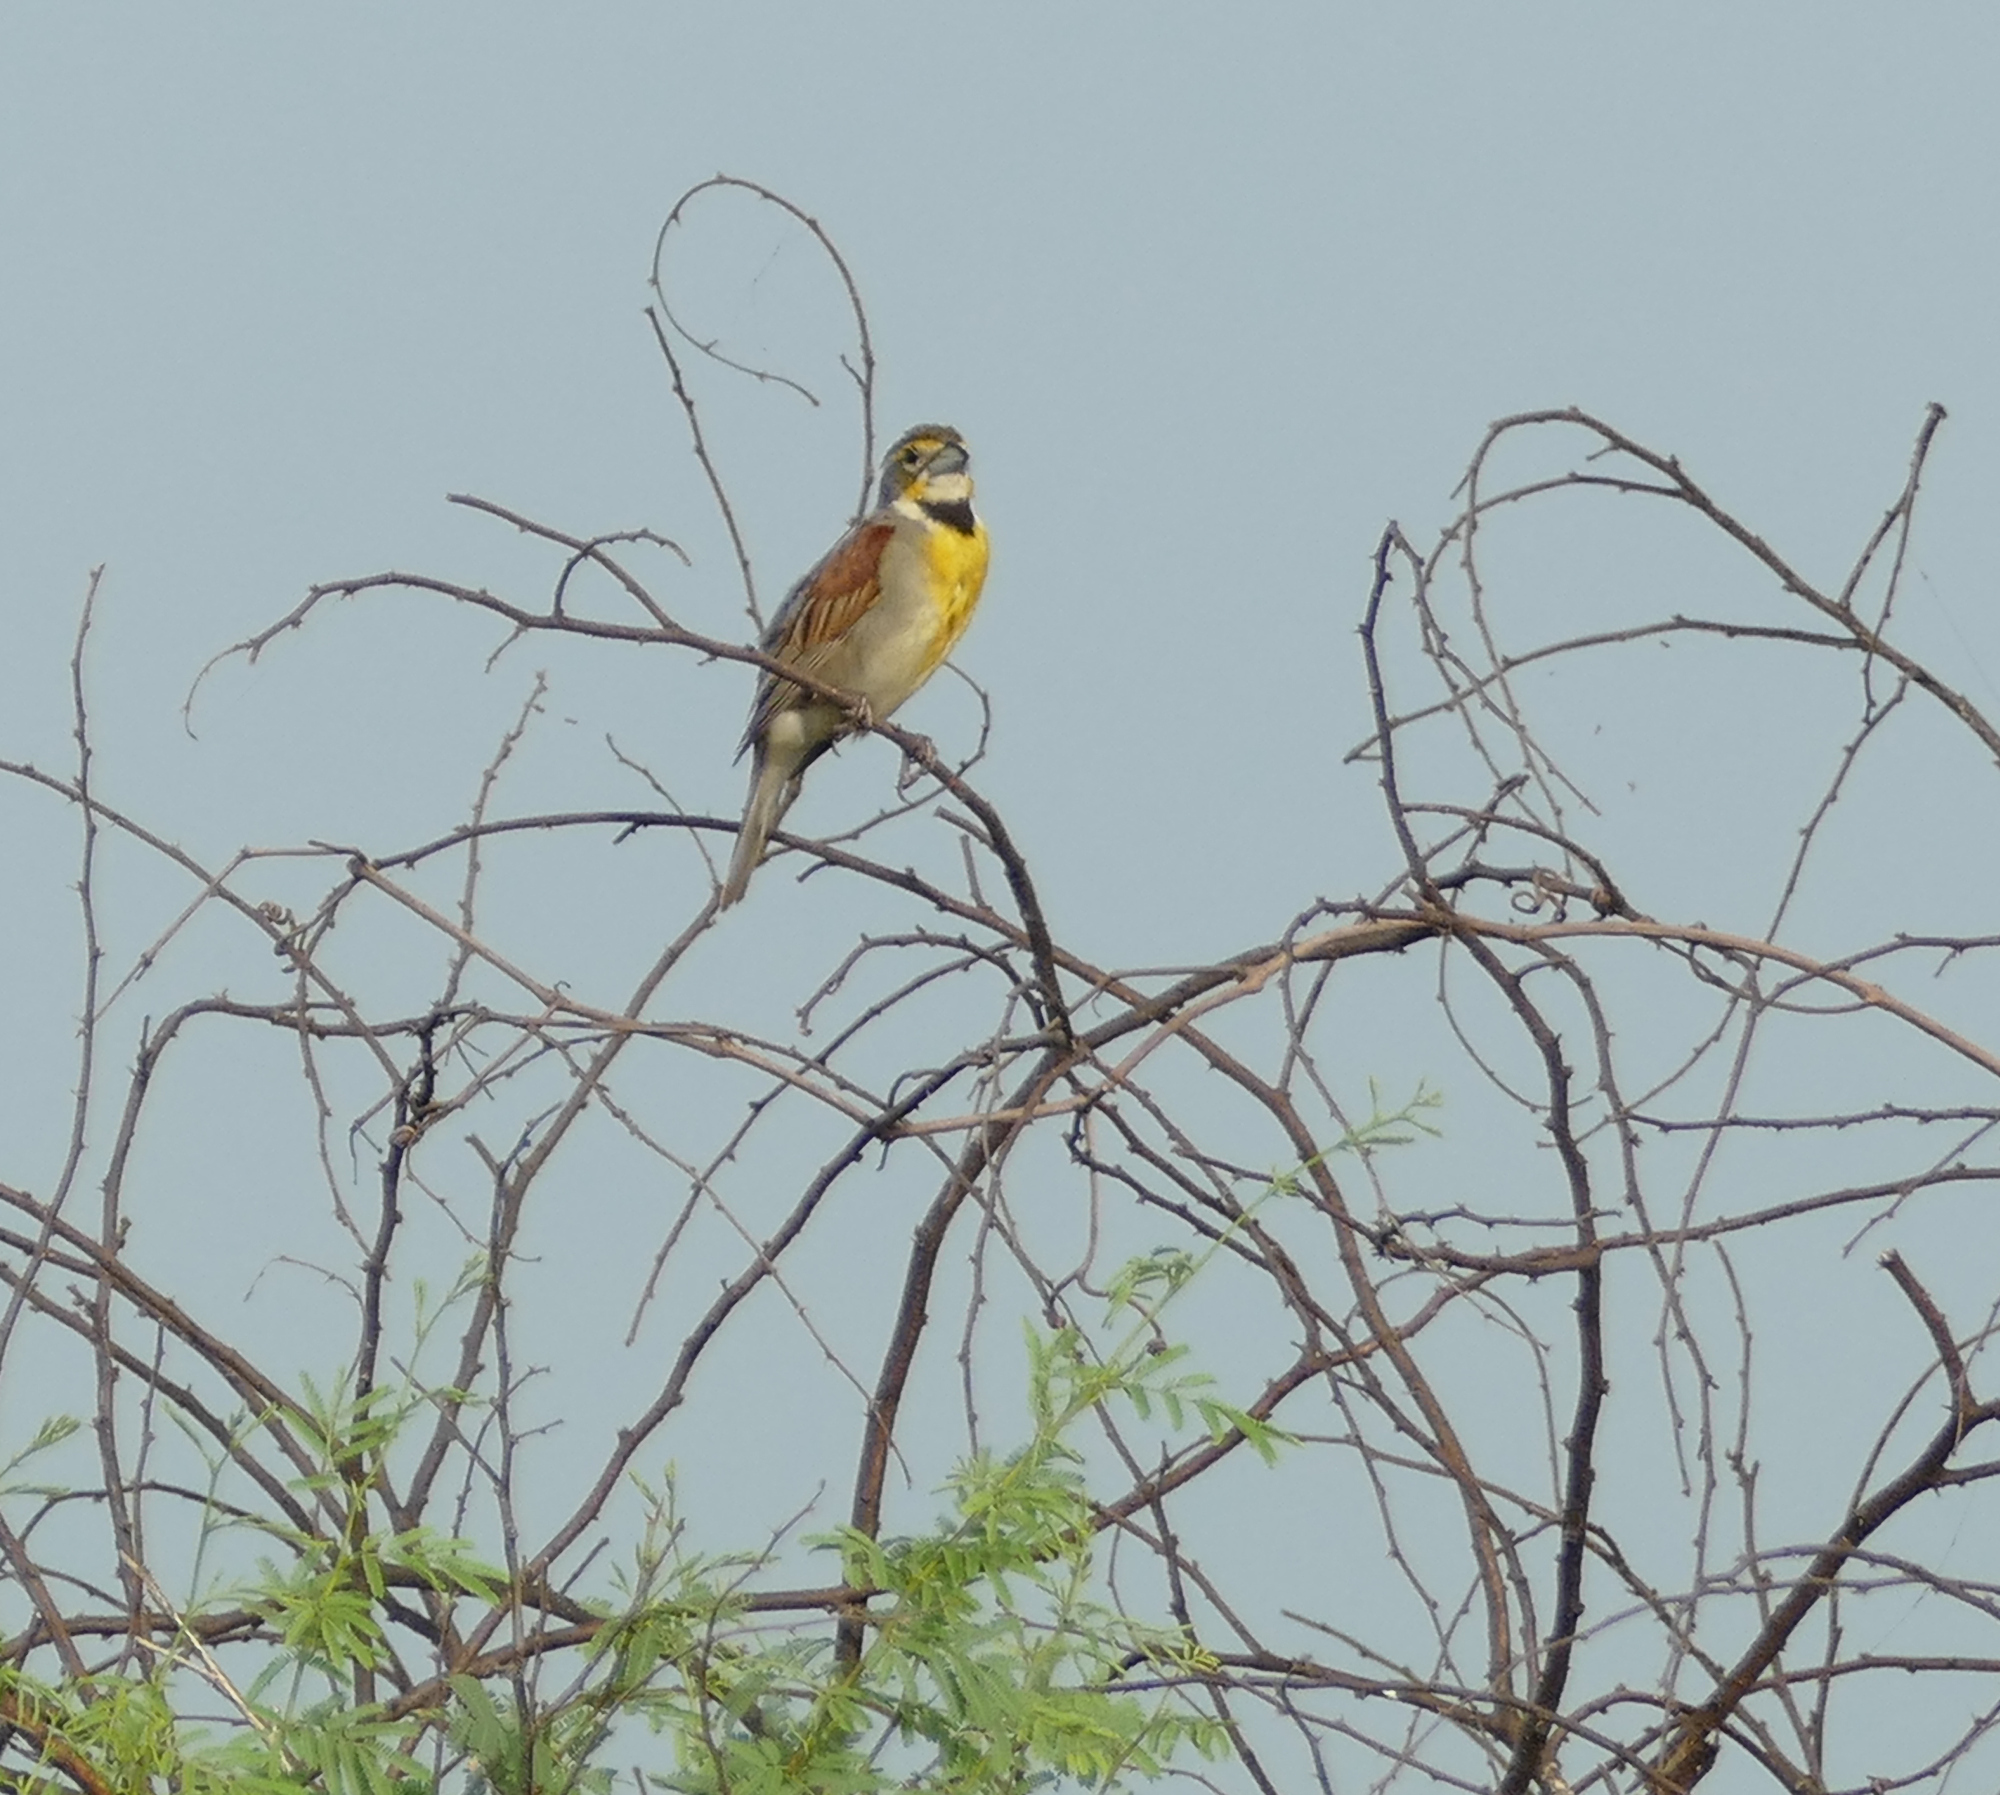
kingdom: Animalia
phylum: Chordata
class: Aves
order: Passeriformes
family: Cardinalidae
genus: Spiza
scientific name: Spiza americana
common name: Dickcissel
